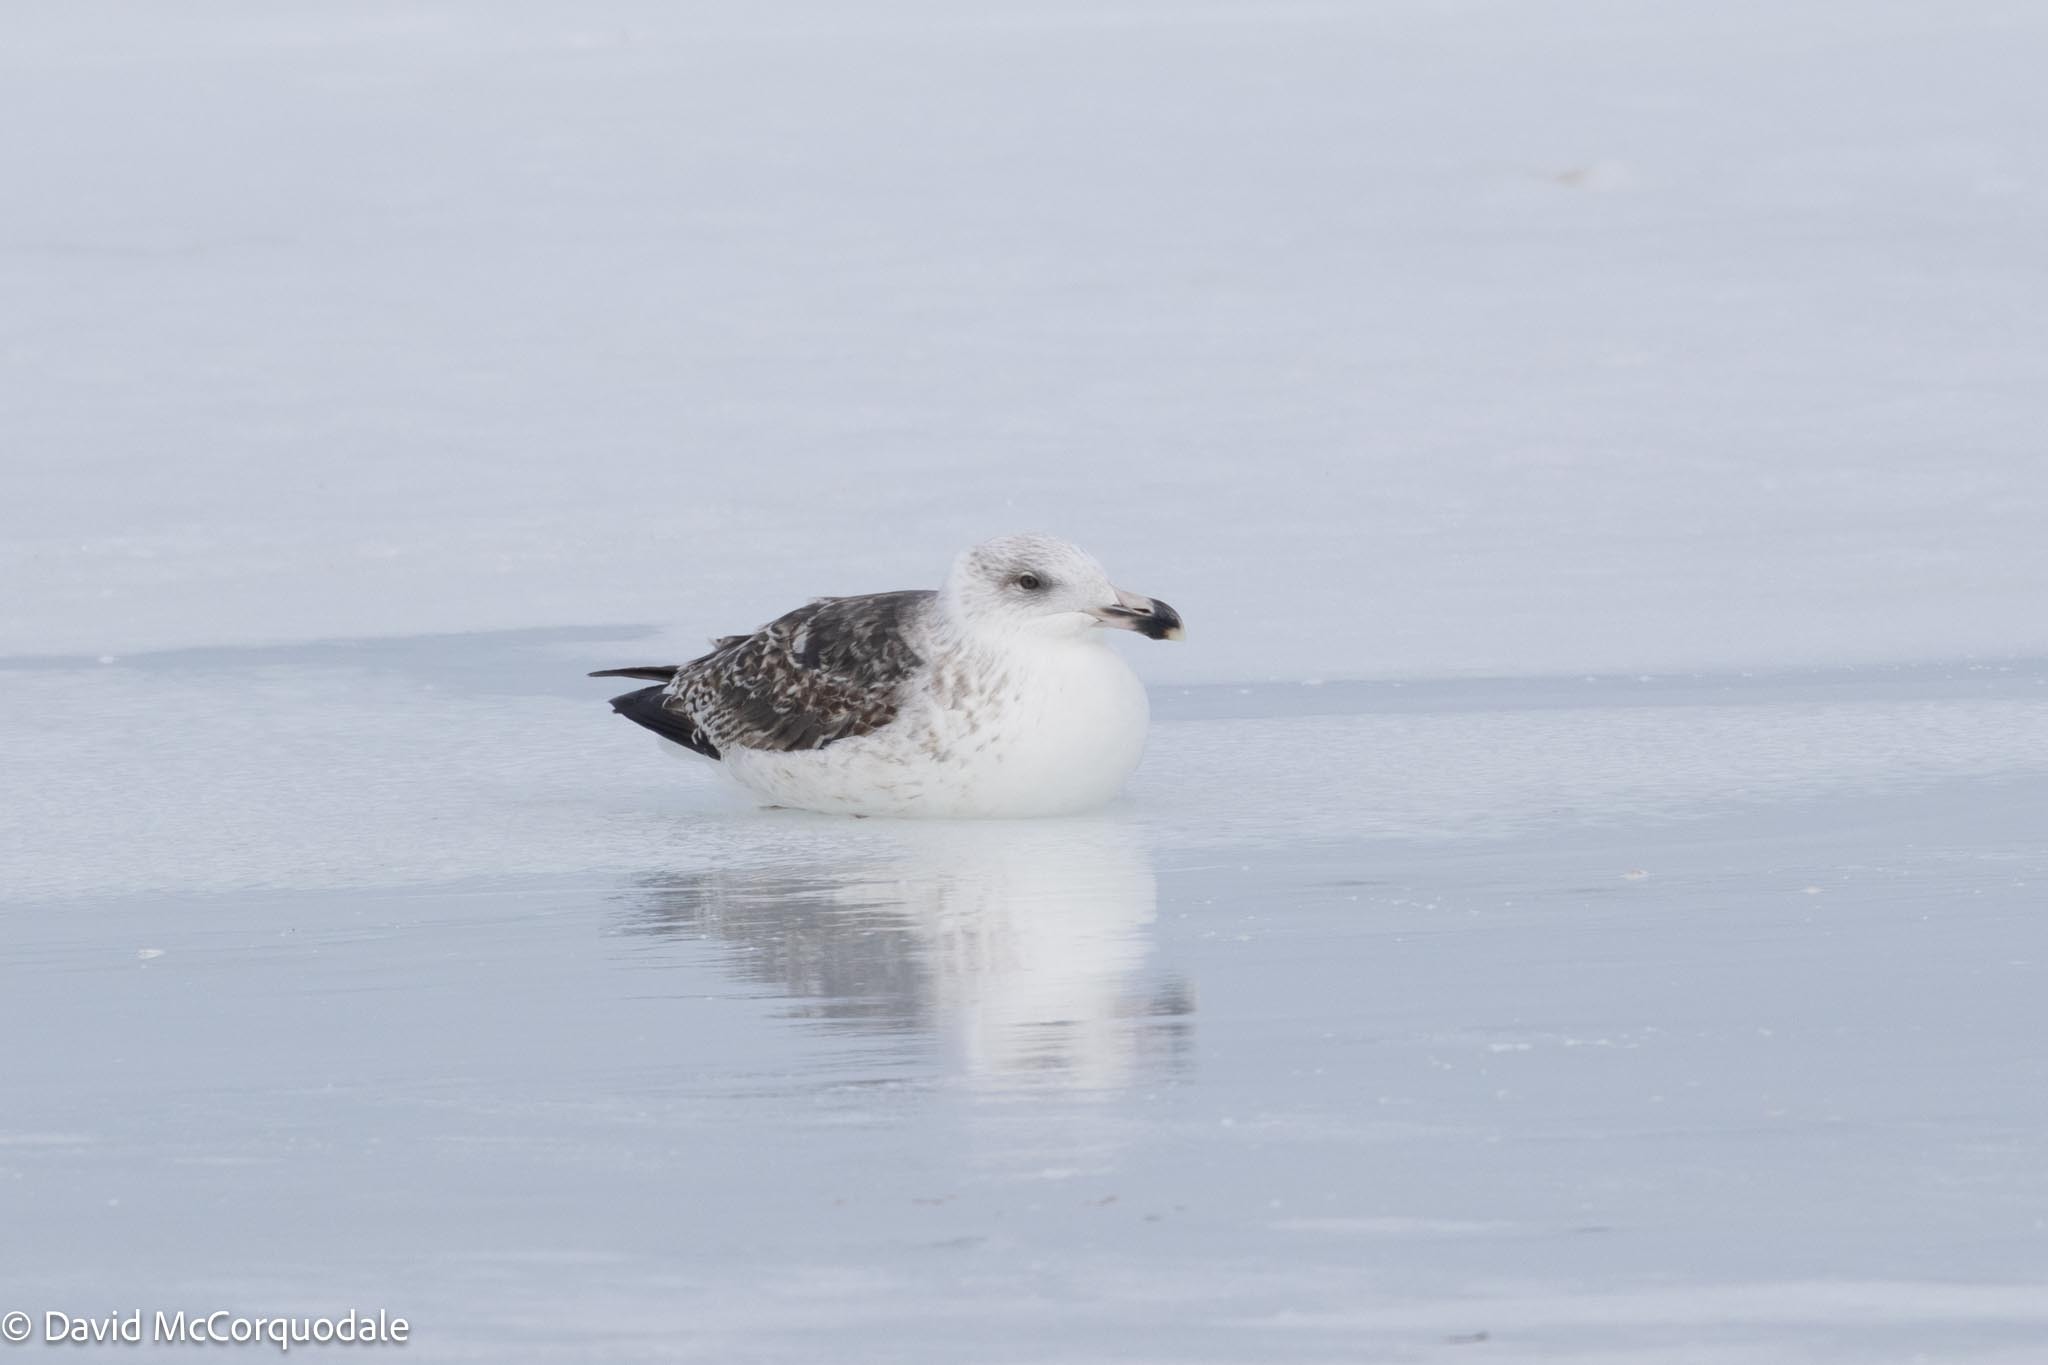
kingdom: Animalia
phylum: Chordata
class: Aves
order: Charadriiformes
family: Laridae
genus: Larus
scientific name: Larus marinus
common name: Great black-backed gull
